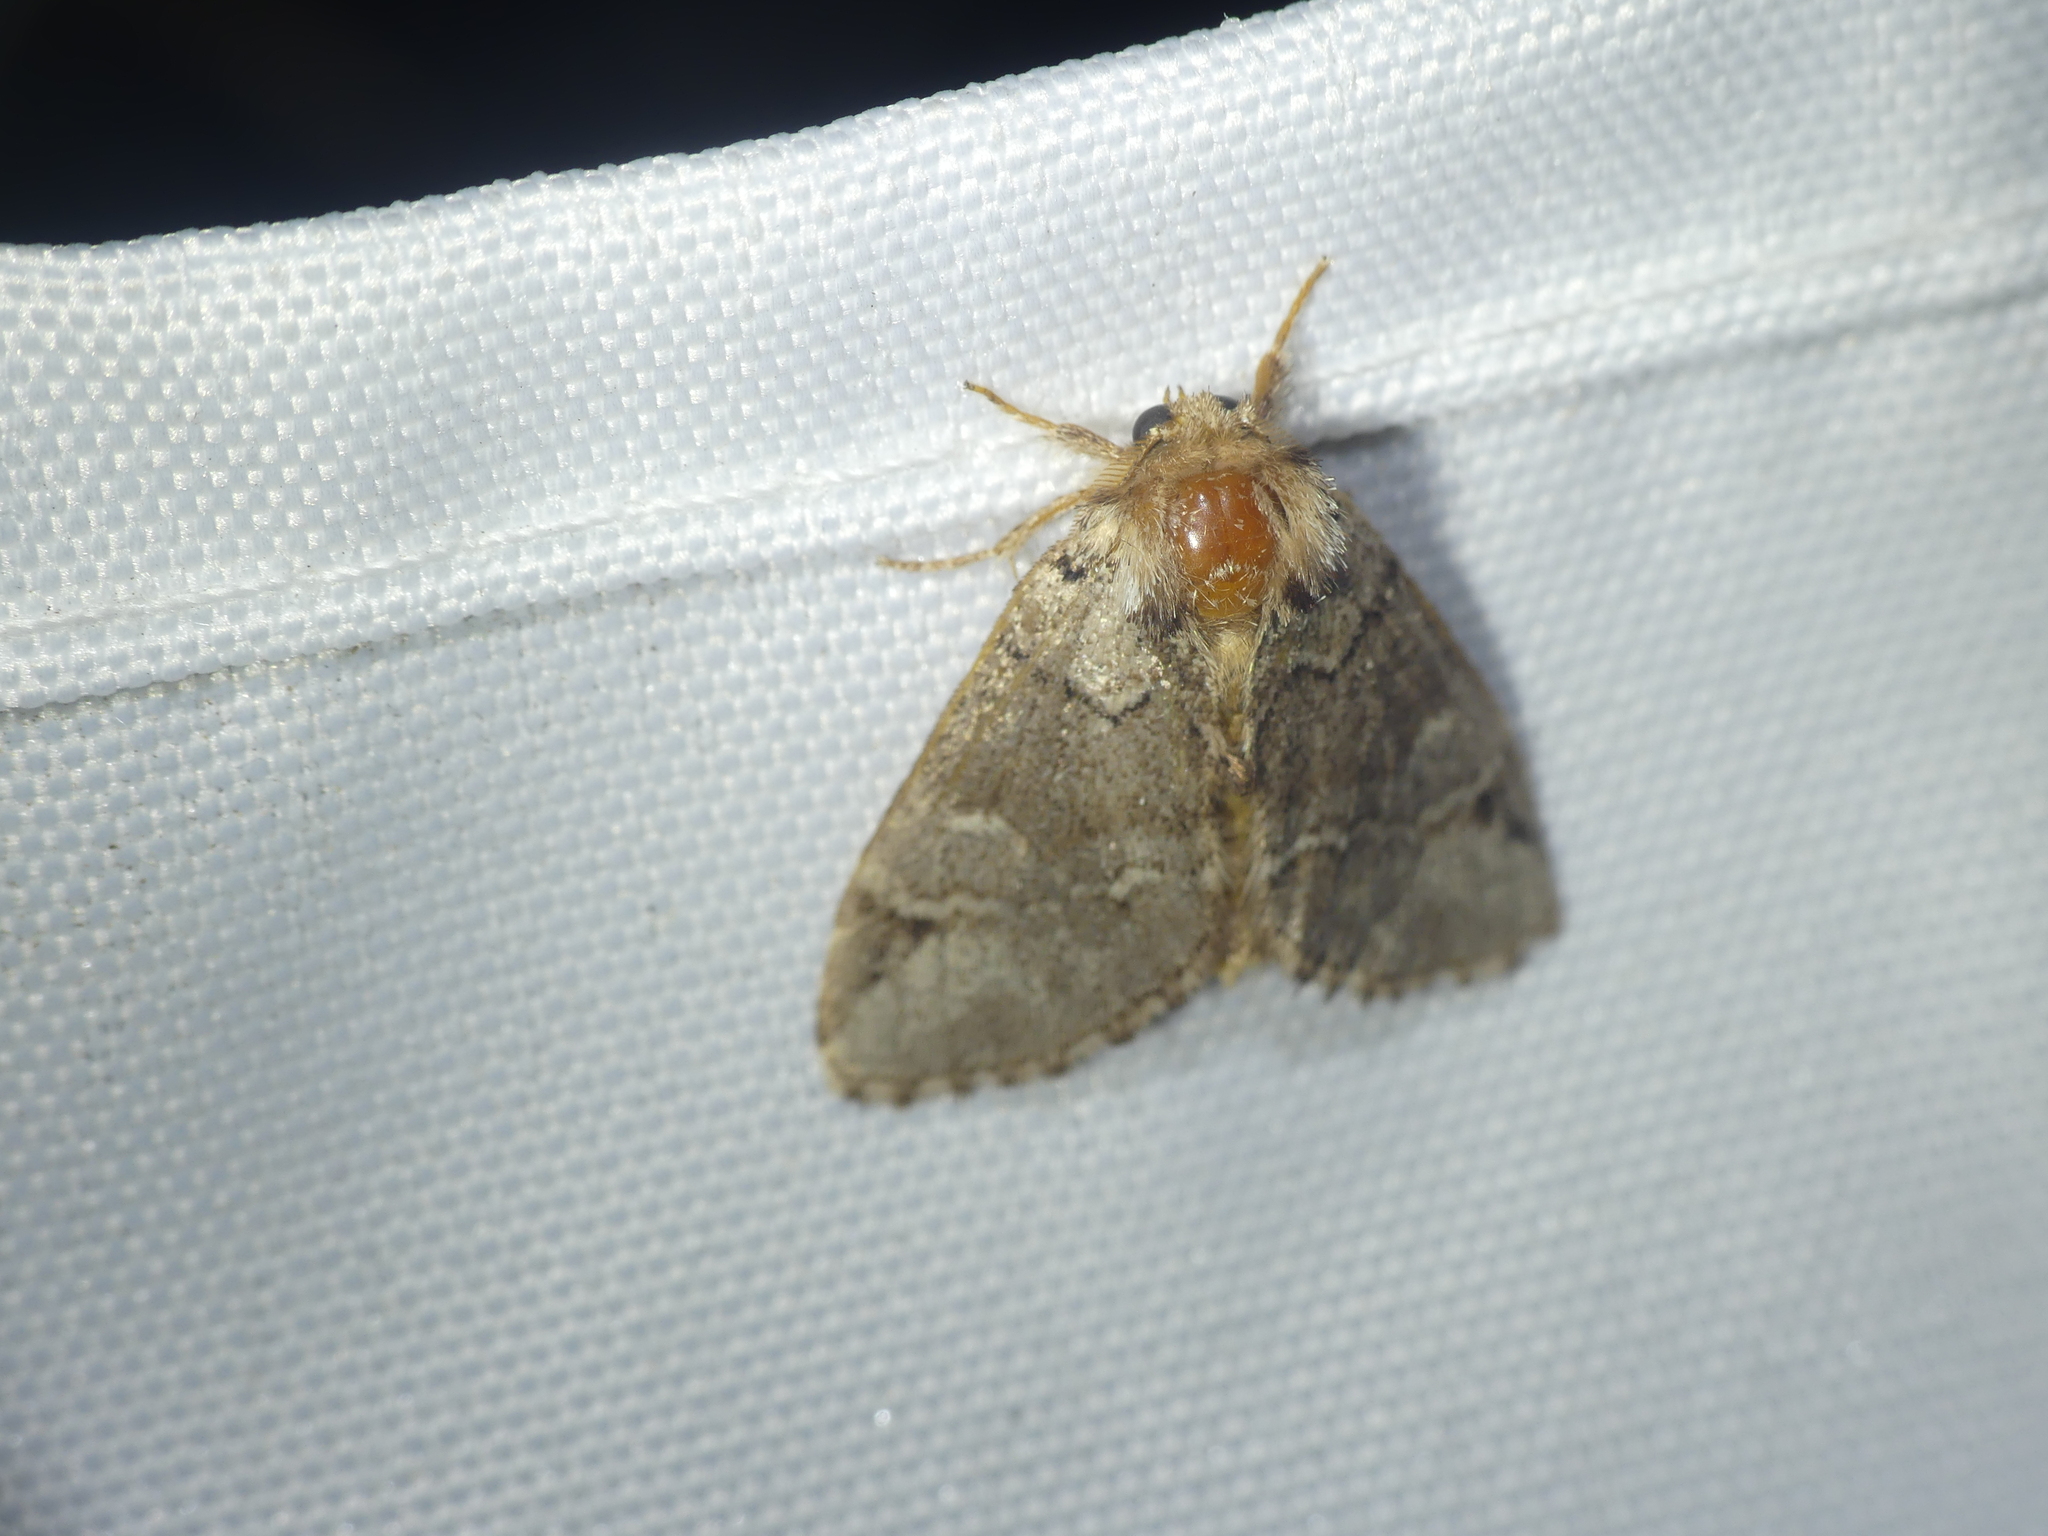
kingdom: Animalia
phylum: Arthropoda
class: Insecta
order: Lepidoptera
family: Notodontidae
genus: Drymonia
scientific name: Drymonia obliterata
